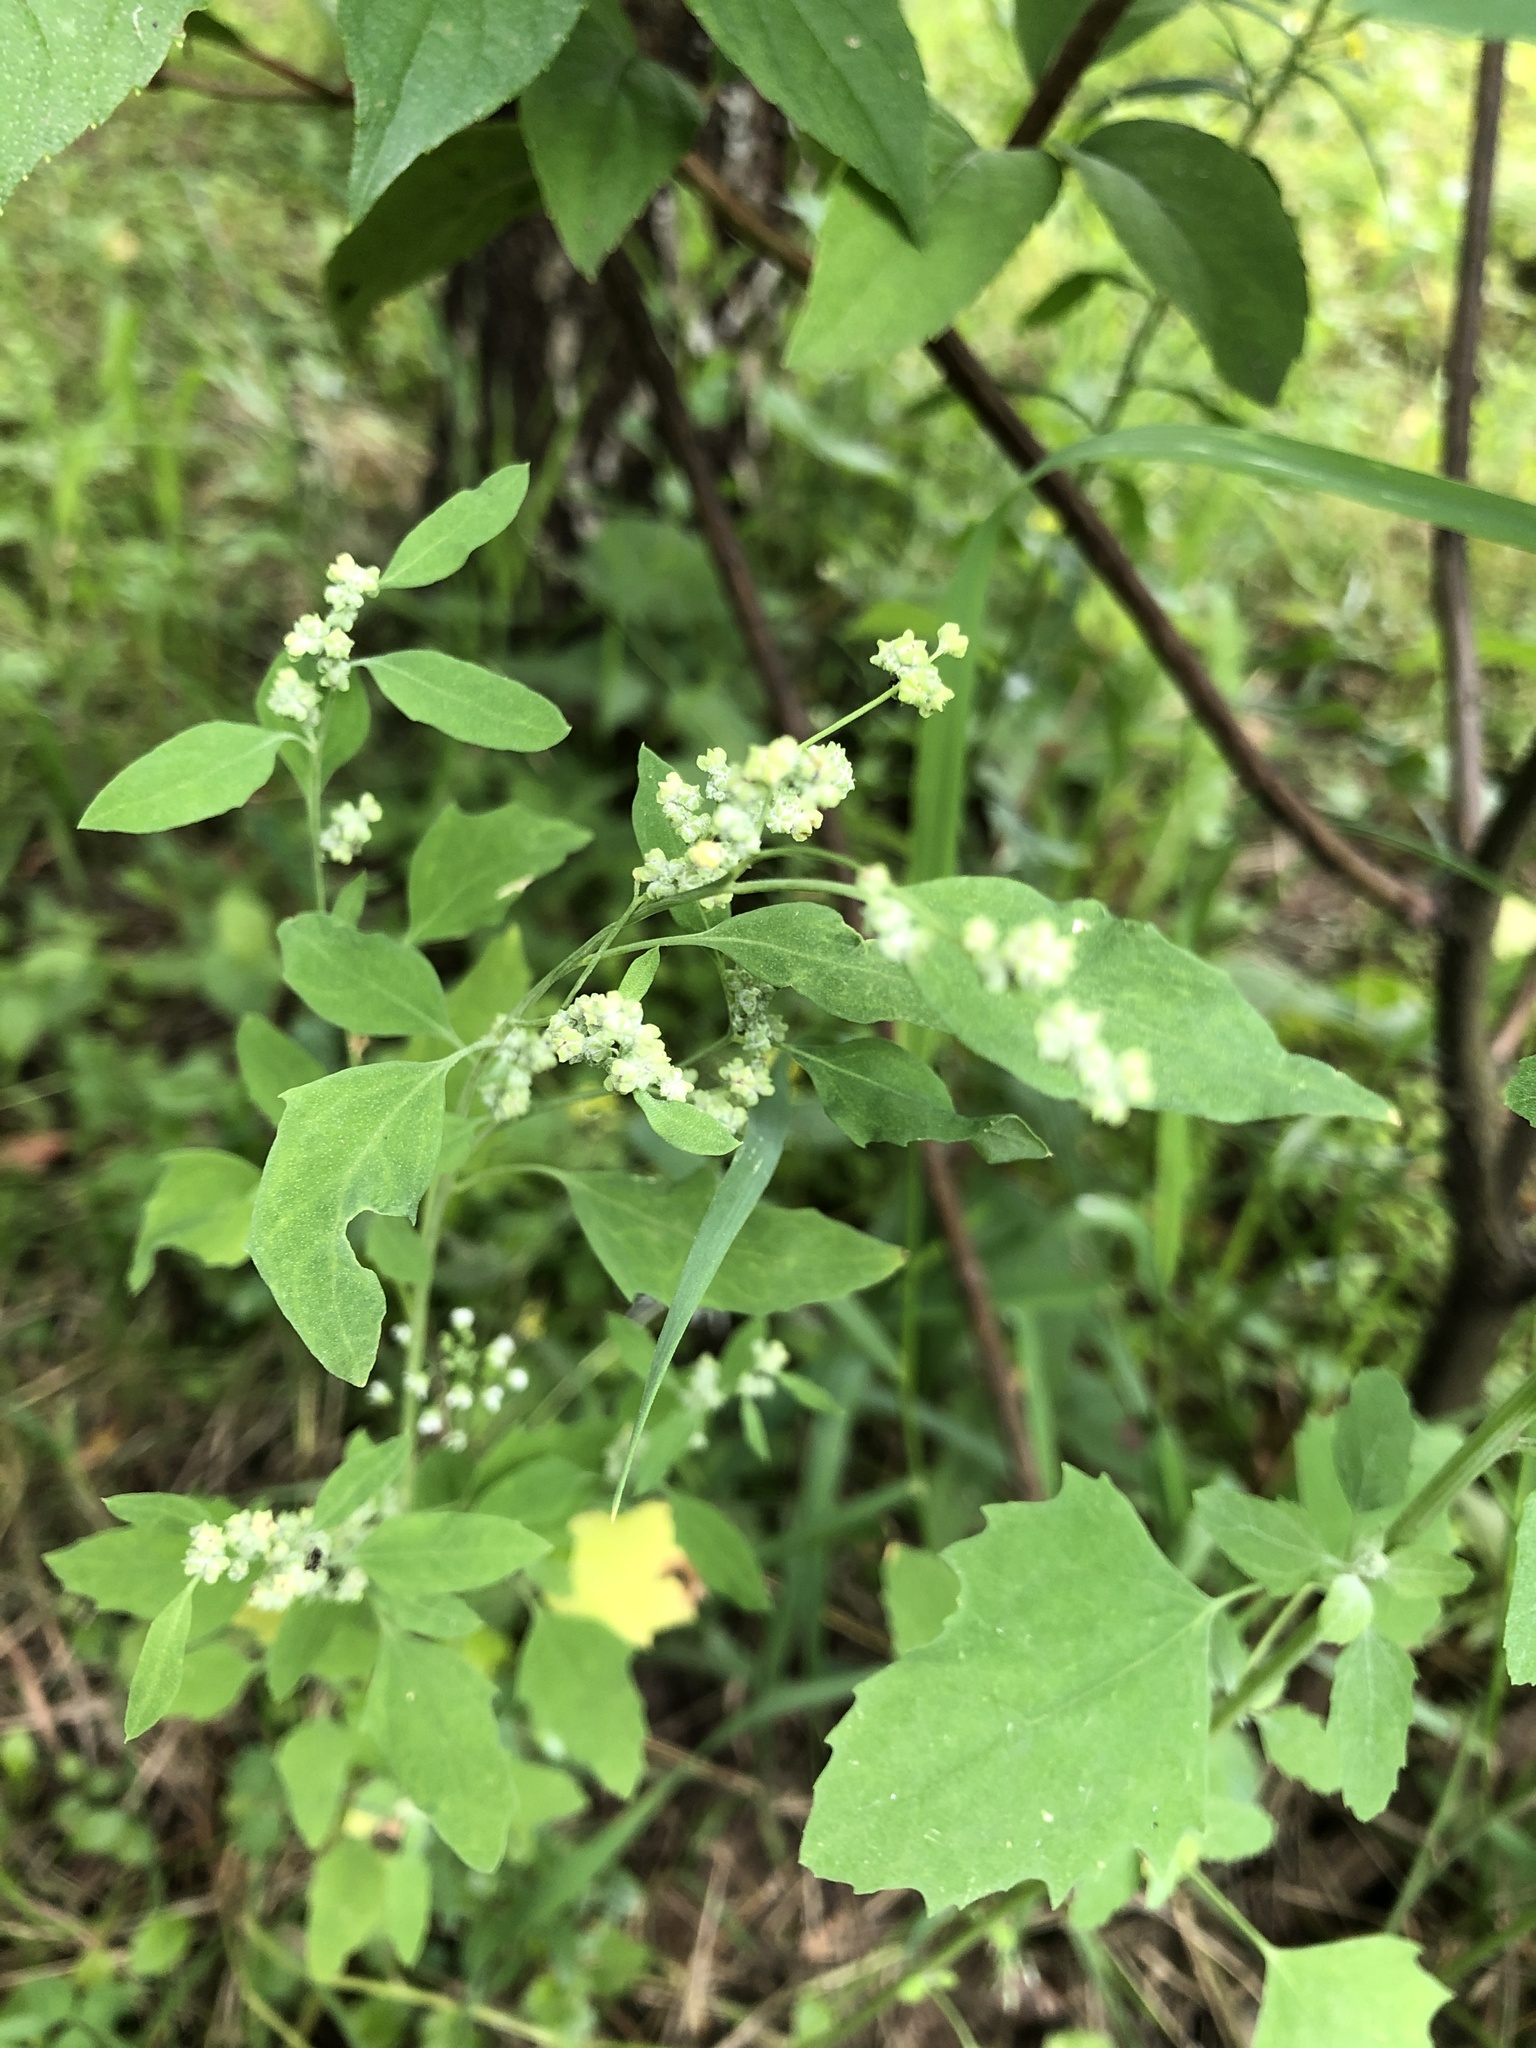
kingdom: Plantae
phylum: Tracheophyta
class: Magnoliopsida
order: Caryophyllales
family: Amaranthaceae
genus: Chenopodium
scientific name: Chenopodium album
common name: Fat-hen
